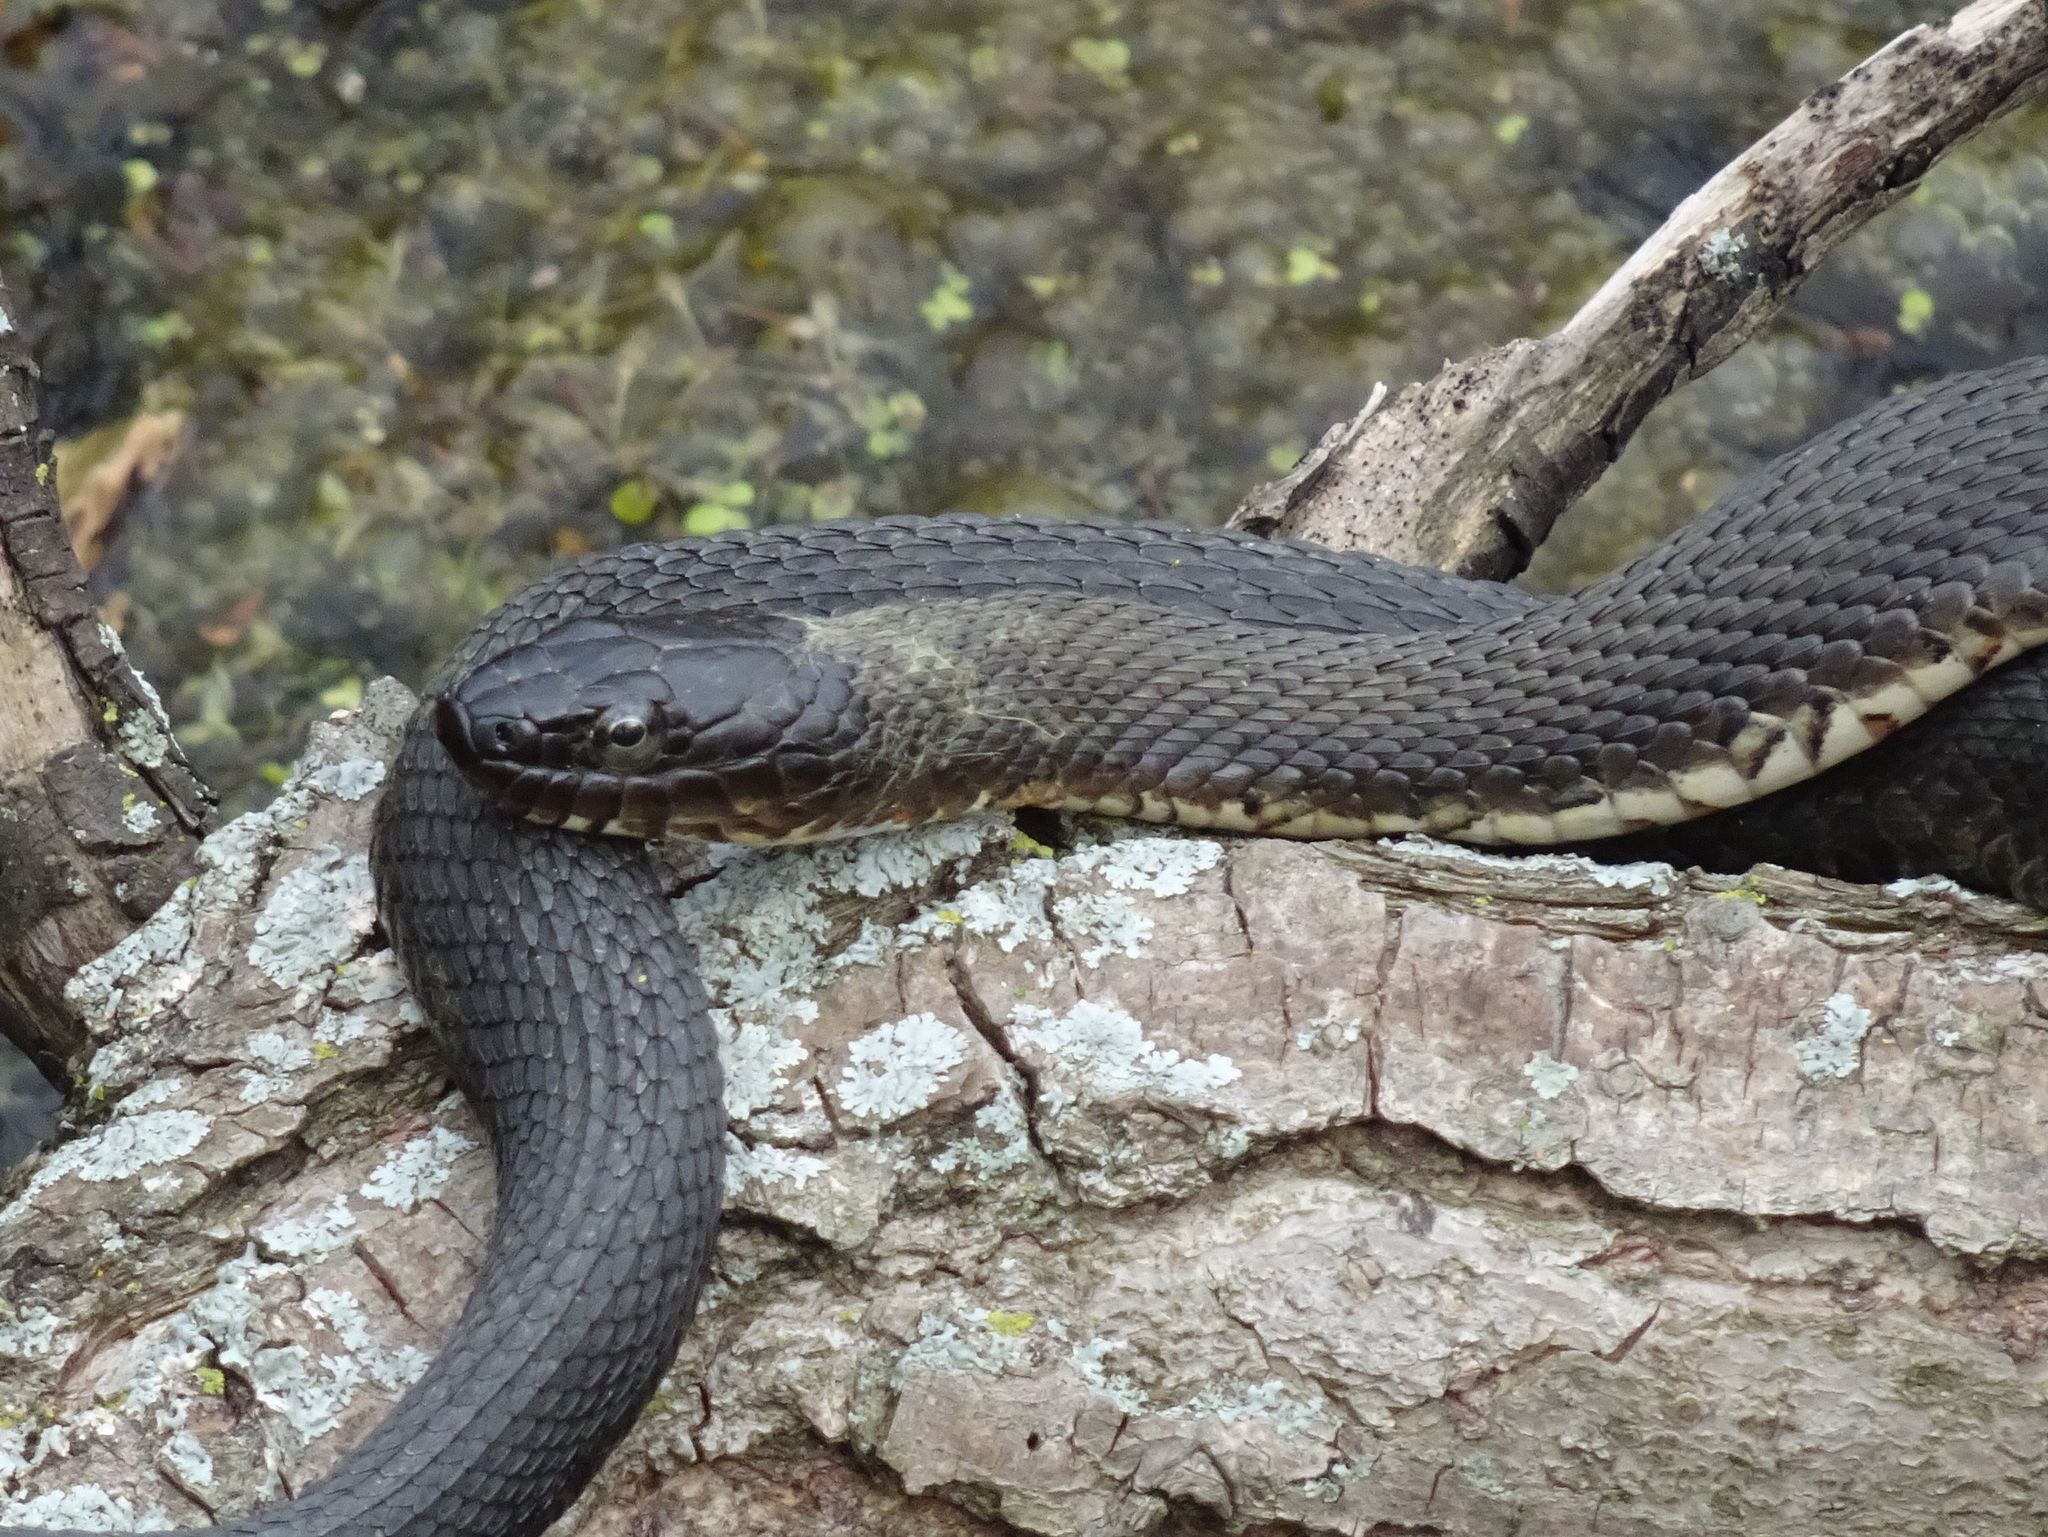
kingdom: Animalia
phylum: Chordata
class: Squamata
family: Colubridae
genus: Nerodia
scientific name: Nerodia sipedon
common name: Northern water snake
